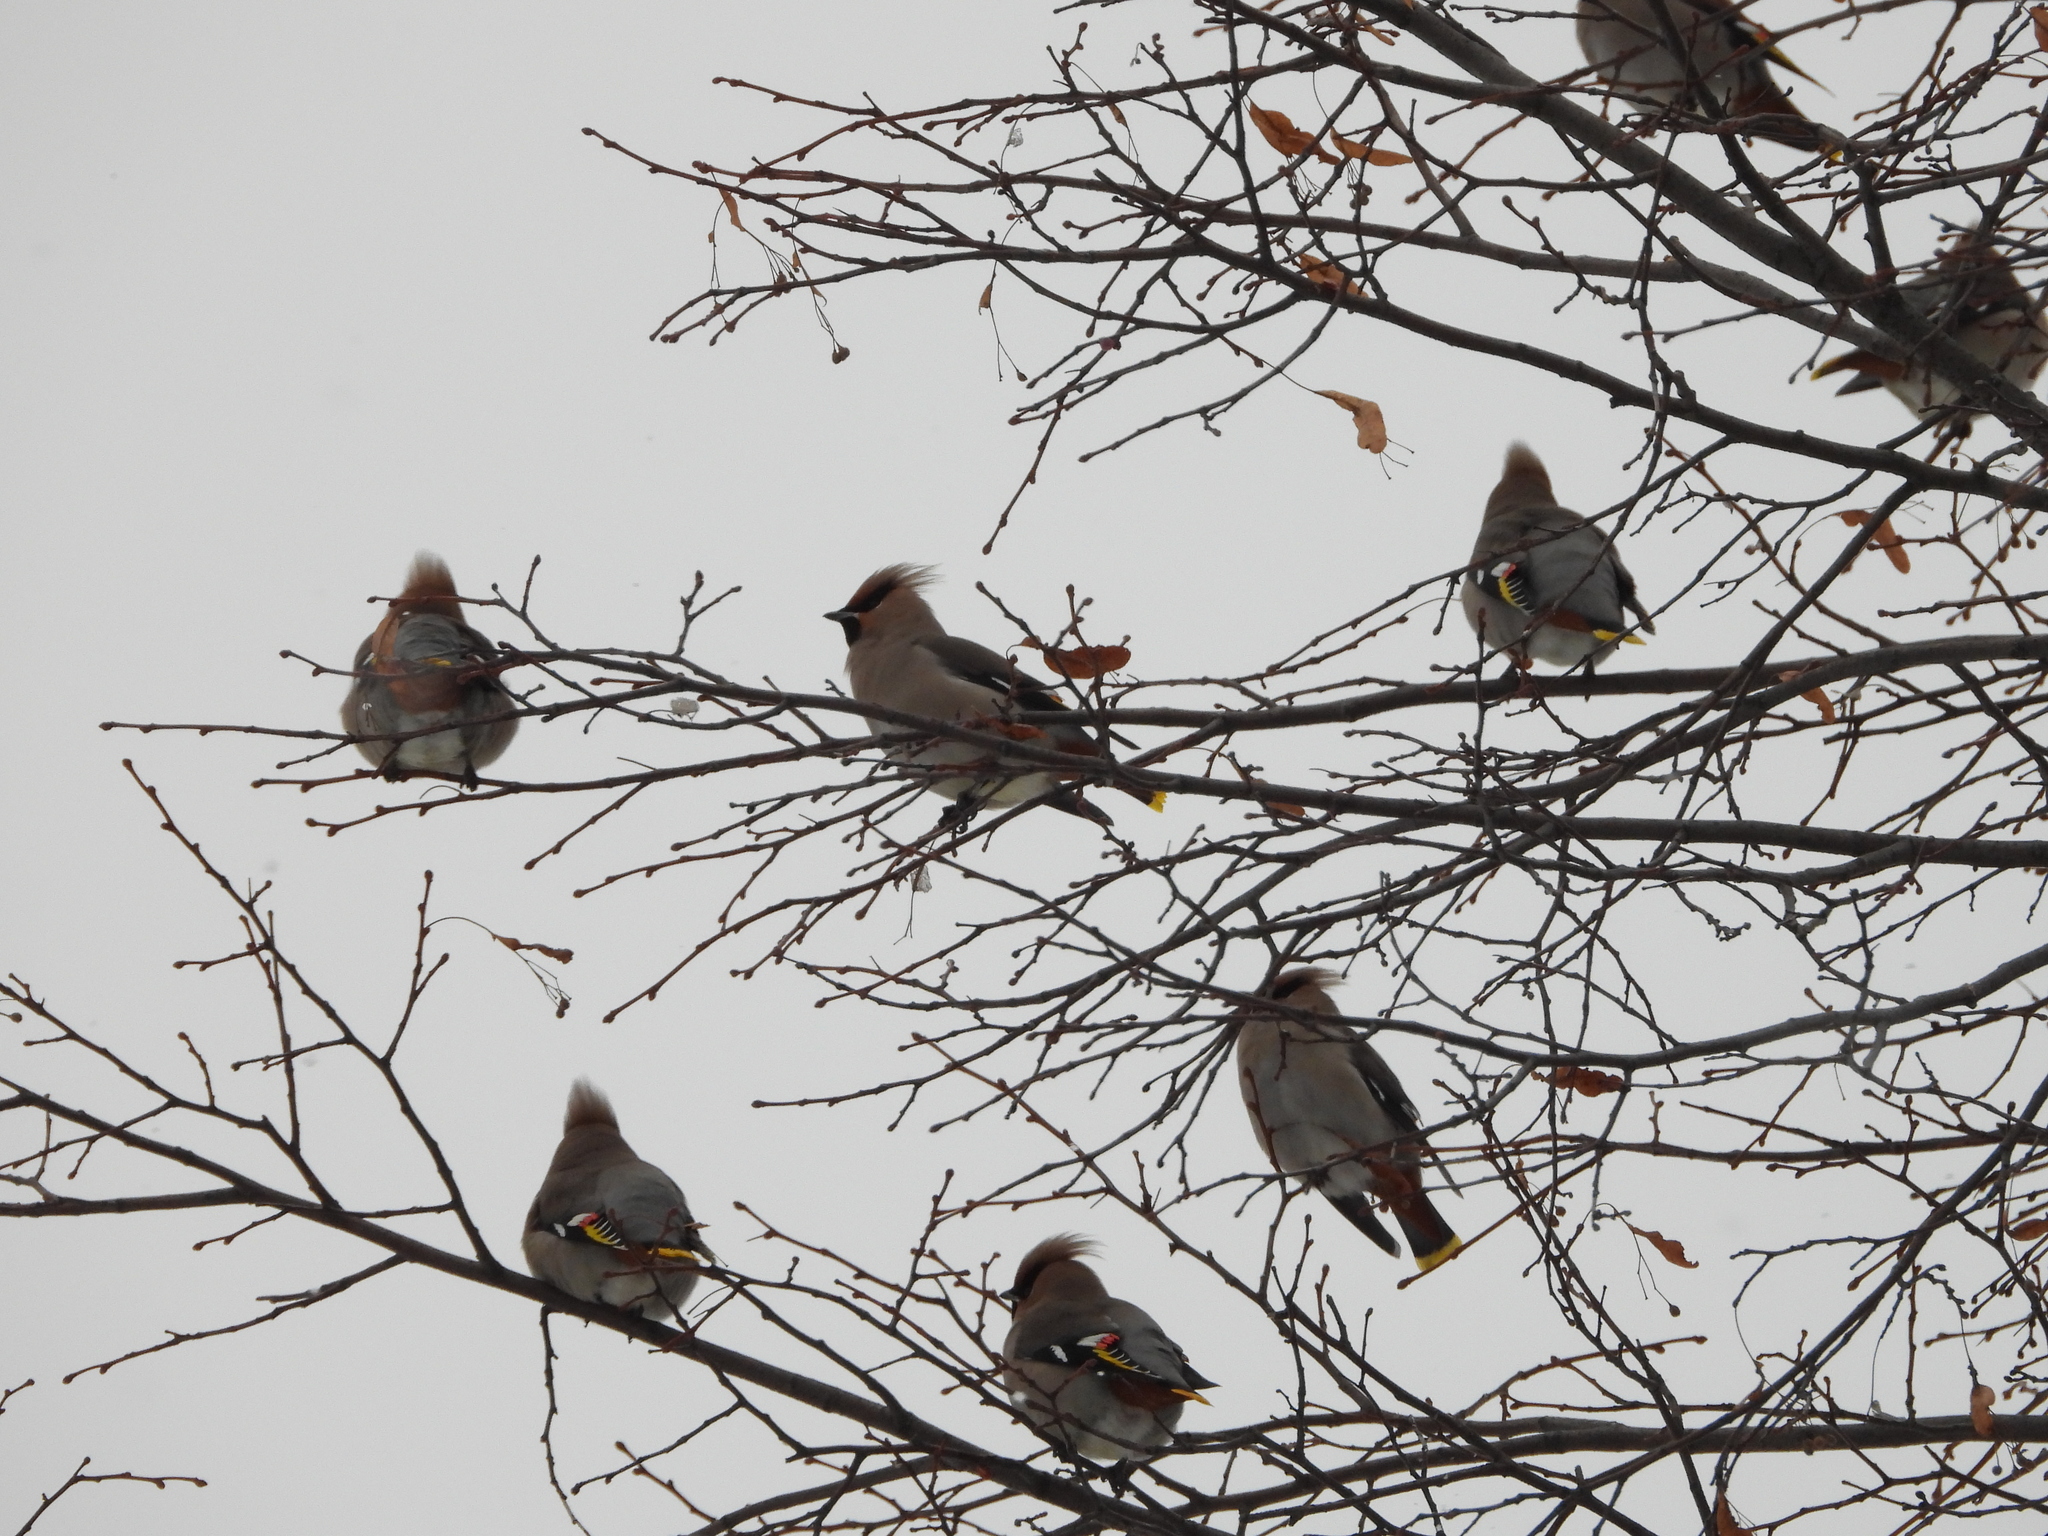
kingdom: Animalia
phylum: Chordata
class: Aves
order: Passeriformes
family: Bombycillidae
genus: Bombycilla
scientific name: Bombycilla garrulus
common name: Bohemian waxwing
